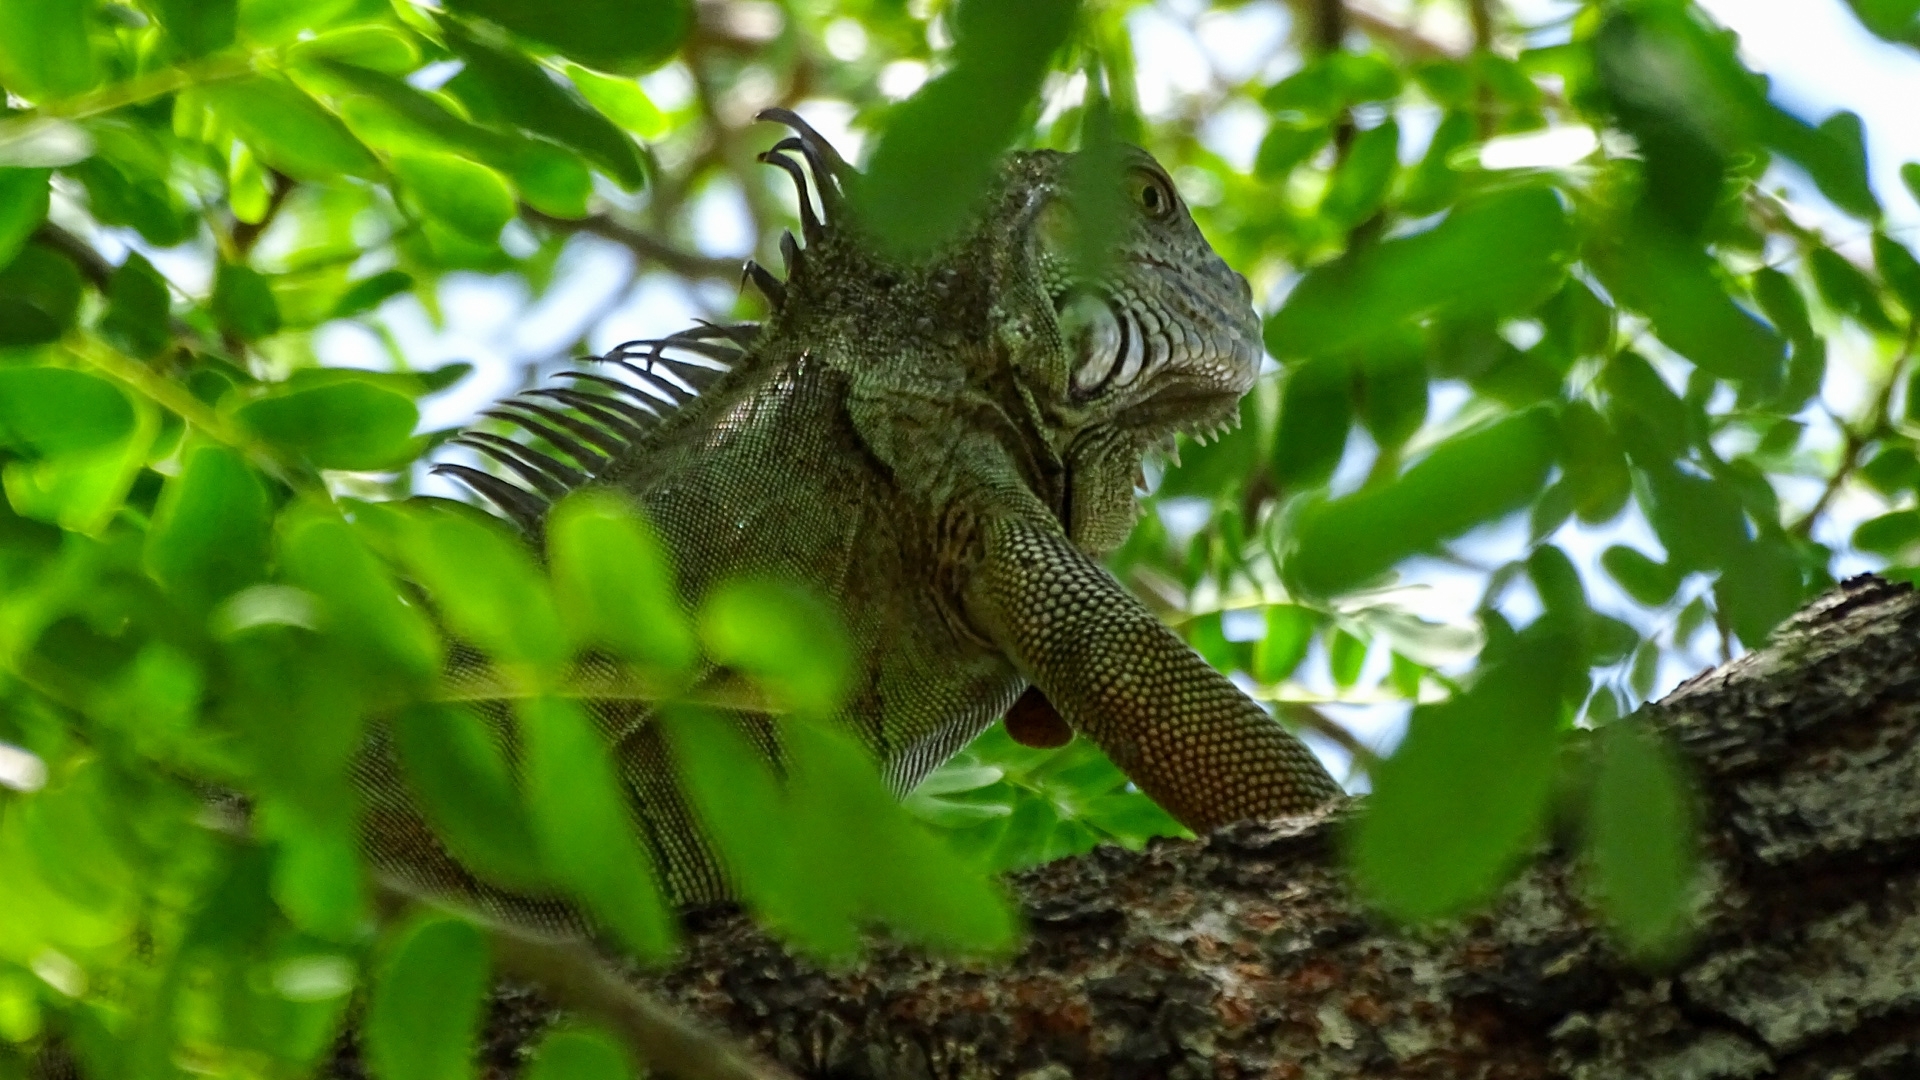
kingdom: Animalia
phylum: Chordata
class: Squamata
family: Iguanidae
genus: Iguana
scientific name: Iguana iguana
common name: Green iguana
